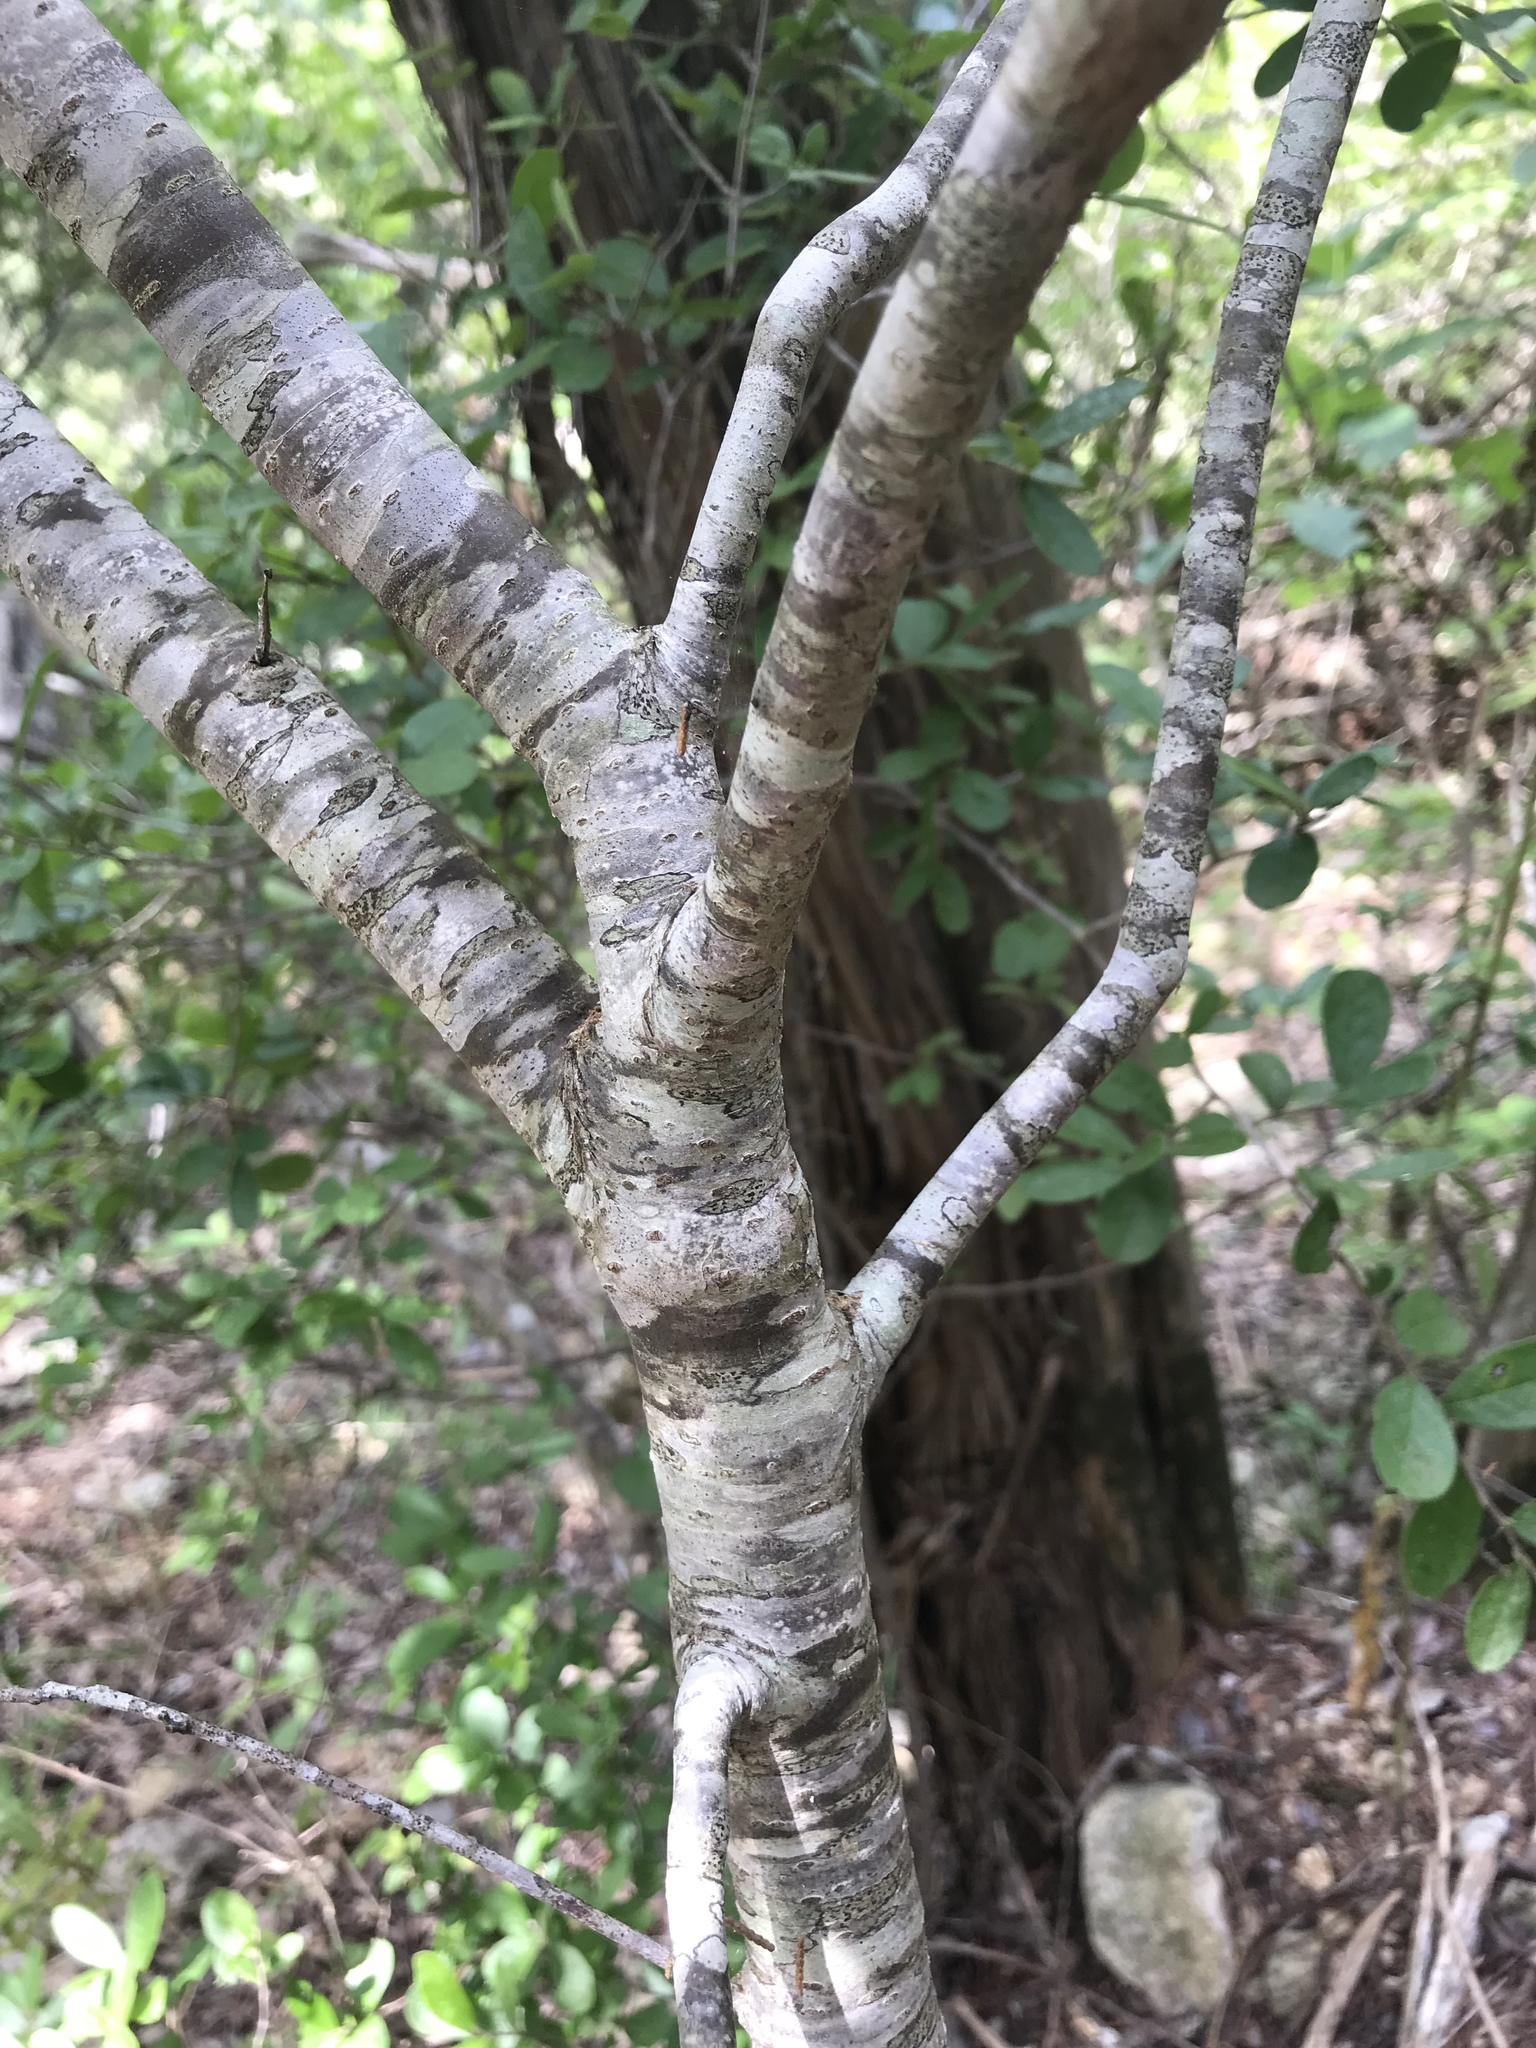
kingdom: Plantae
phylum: Tracheophyta
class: Magnoliopsida
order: Sapindales
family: Rutaceae
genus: Ptelea
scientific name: Ptelea trifoliata
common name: Common hop-tree
